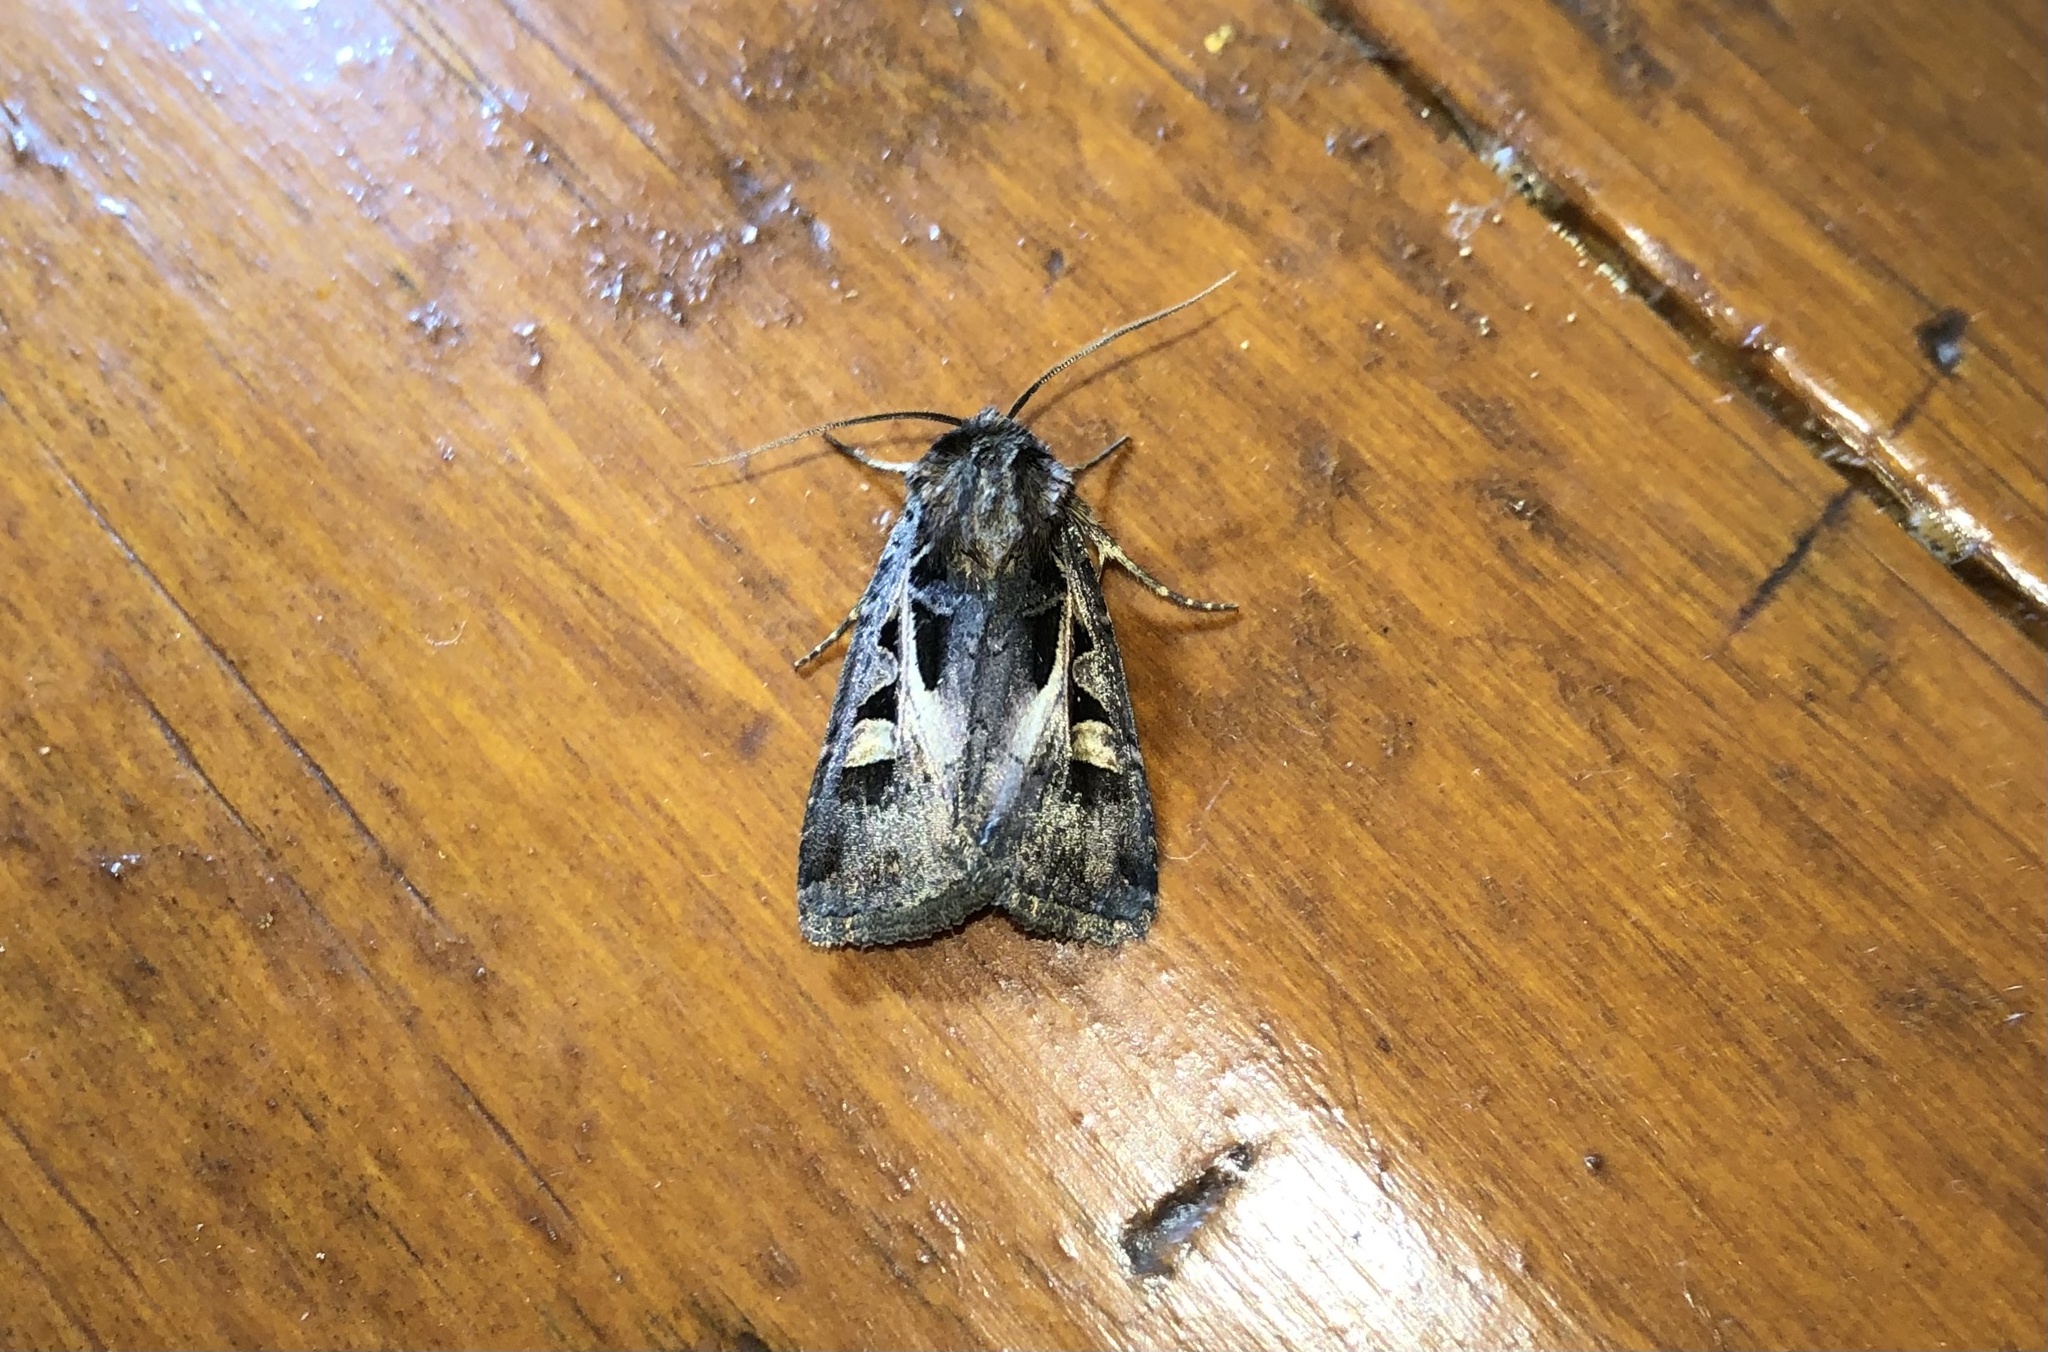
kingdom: Animalia
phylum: Arthropoda
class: Insecta
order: Lepidoptera
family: Noctuidae
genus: Feltia
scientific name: Feltia herilis
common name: Master's dart
